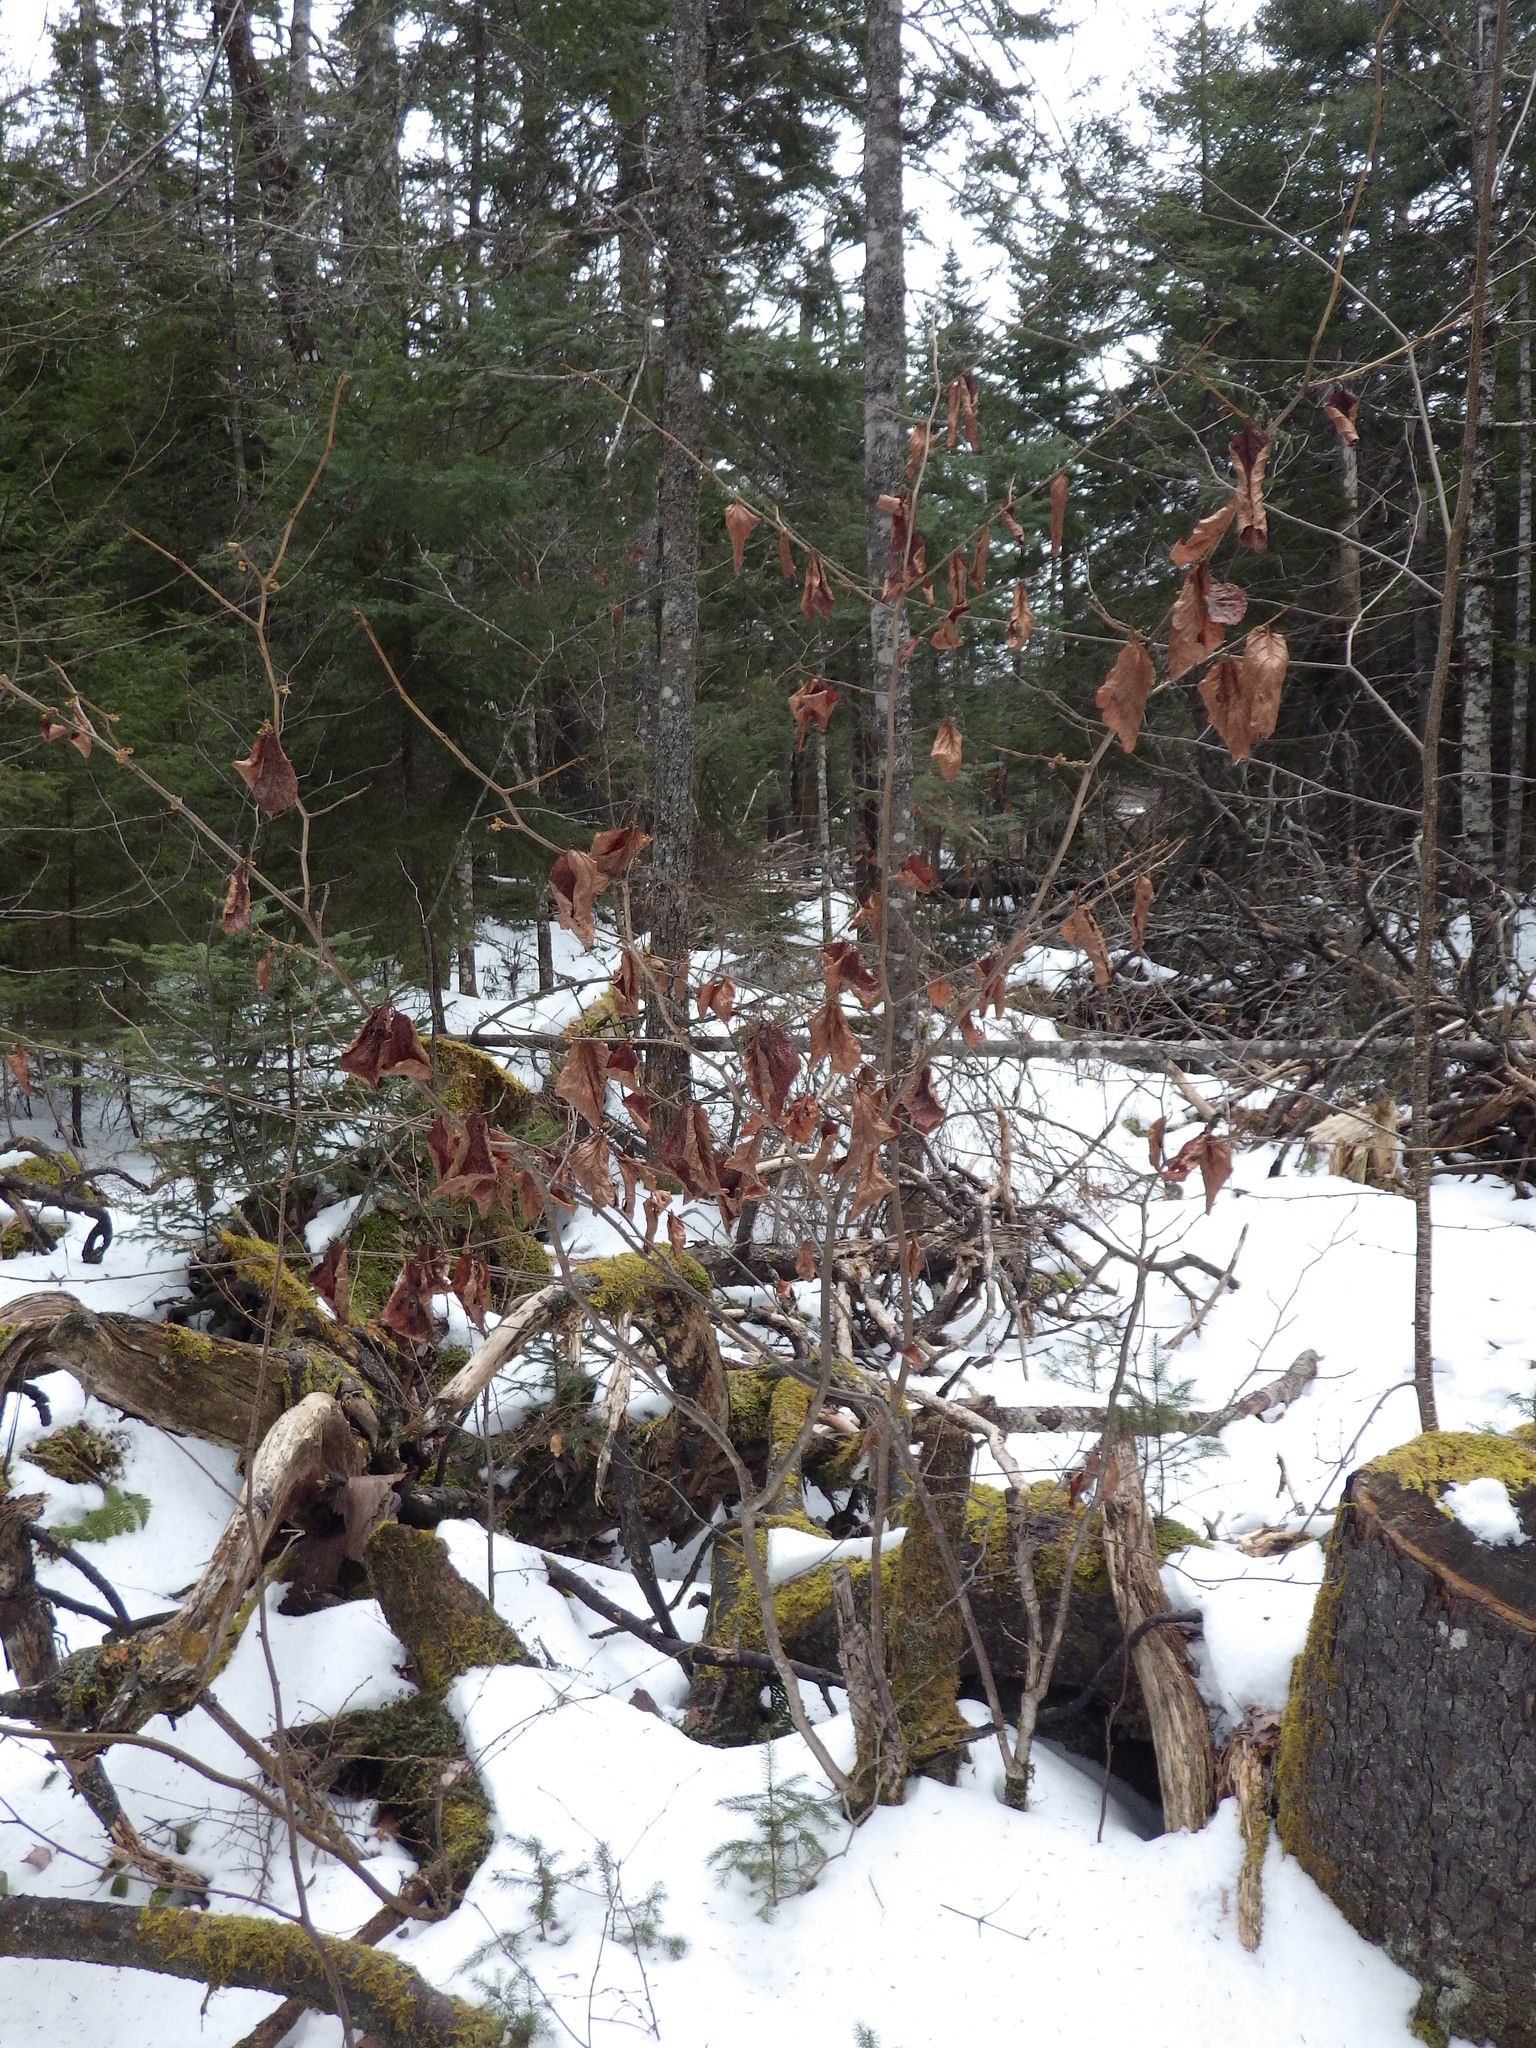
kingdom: Plantae
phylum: Tracheophyta
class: Magnoliopsida
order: Saxifragales
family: Hamamelidaceae
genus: Hamamelis
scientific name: Hamamelis virginiana
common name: Witch-hazel
